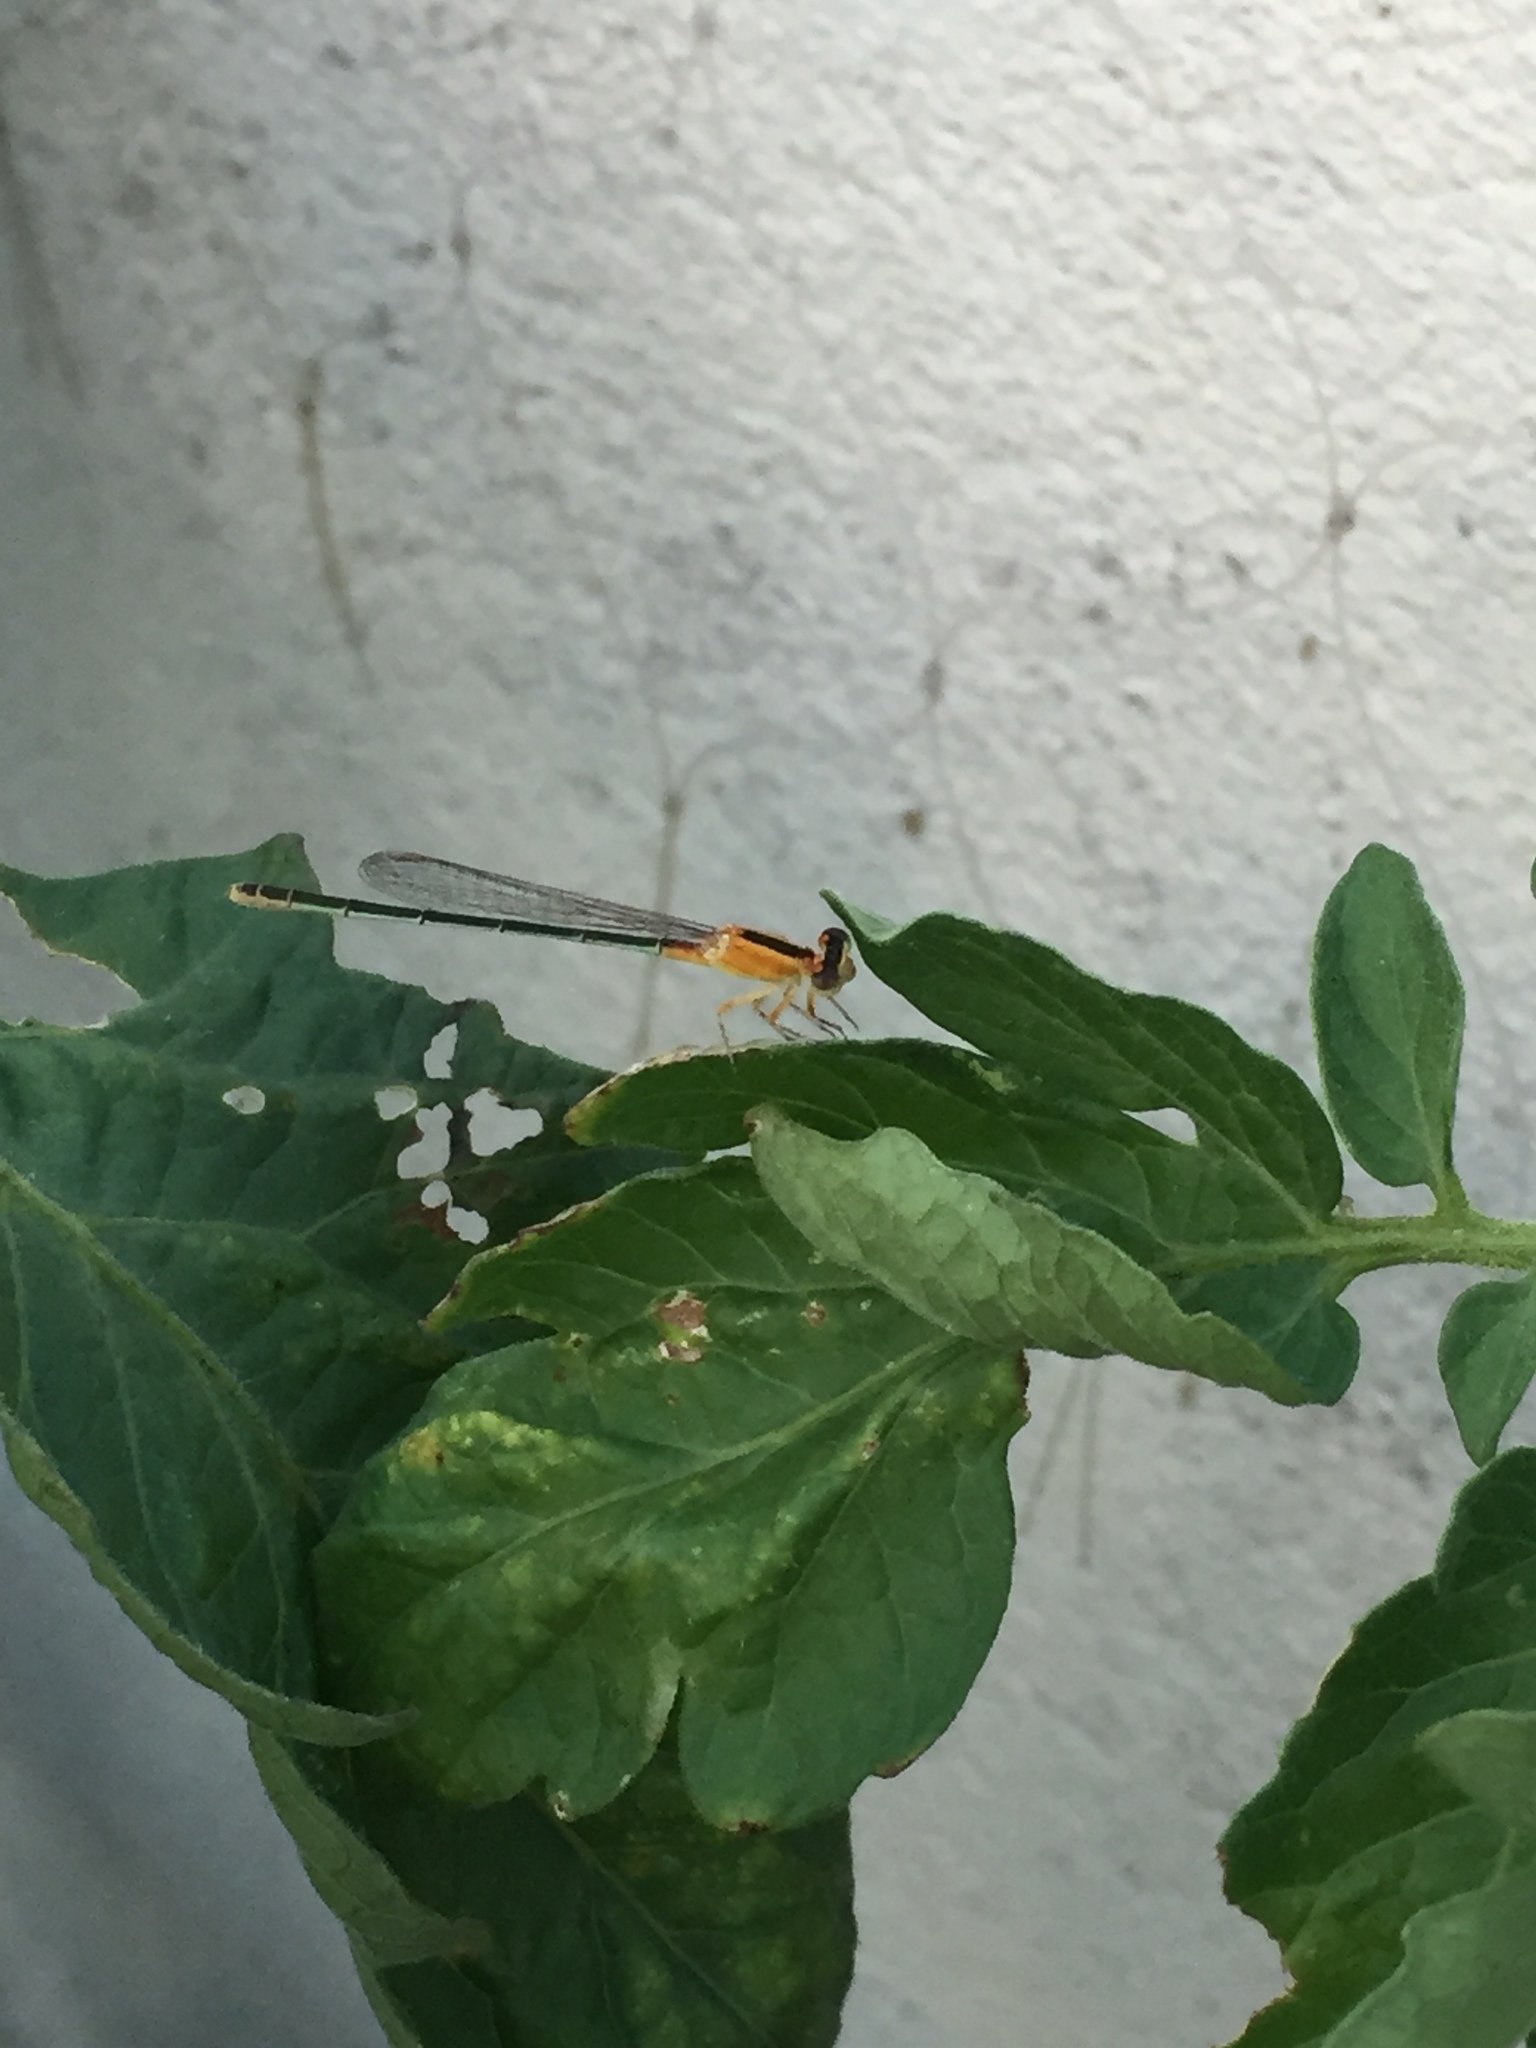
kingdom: Animalia
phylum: Arthropoda
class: Insecta
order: Odonata
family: Coenagrionidae
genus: Ischnura
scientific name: Ischnura fluviatilis
